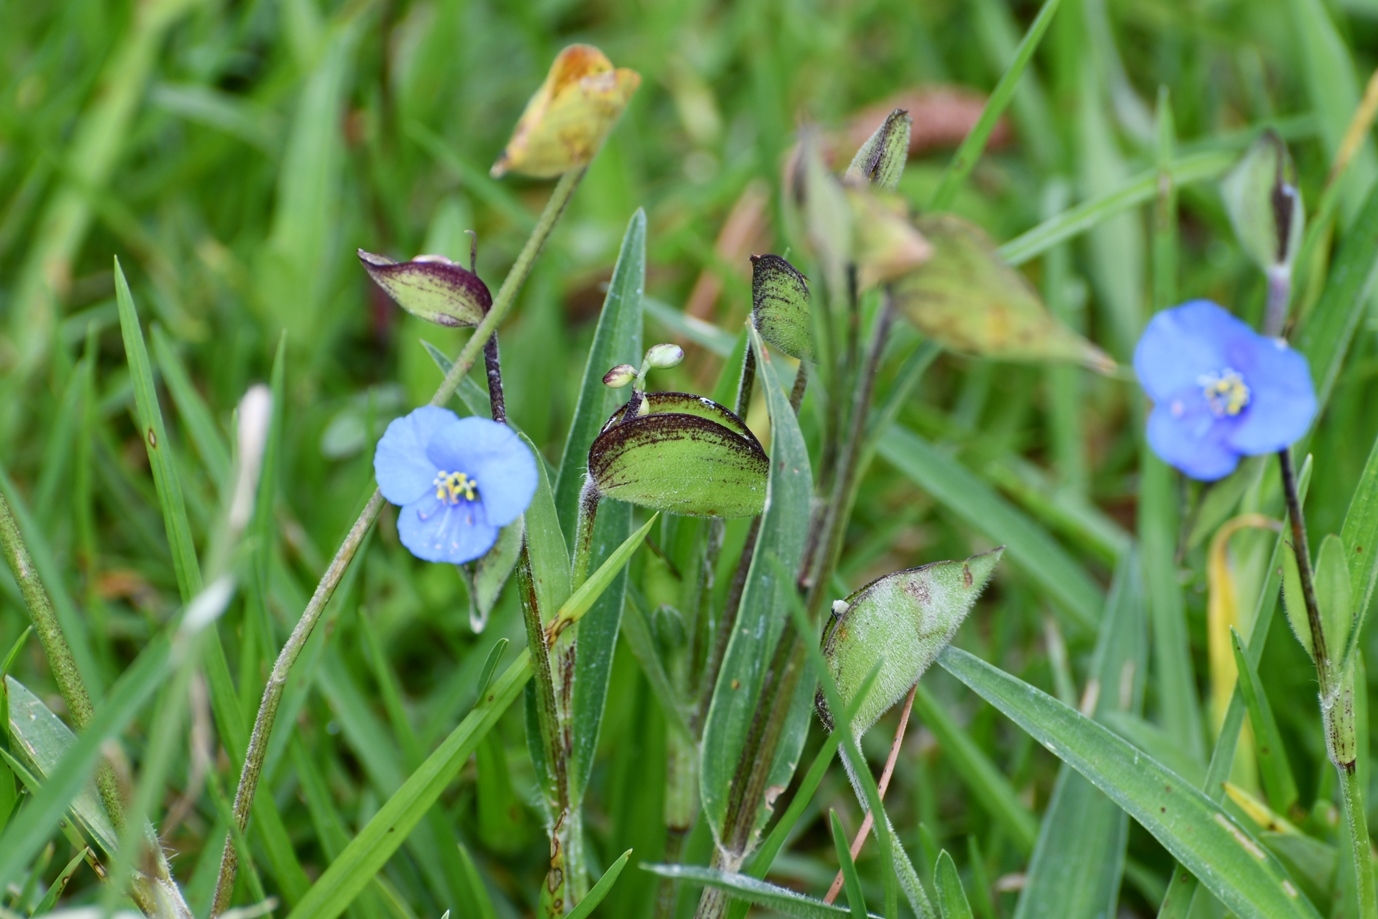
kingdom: Plantae
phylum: Tracheophyta
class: Liliopsida
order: Commelinales
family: Commelinaceae
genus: Commelina
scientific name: Commelina tuberosa
